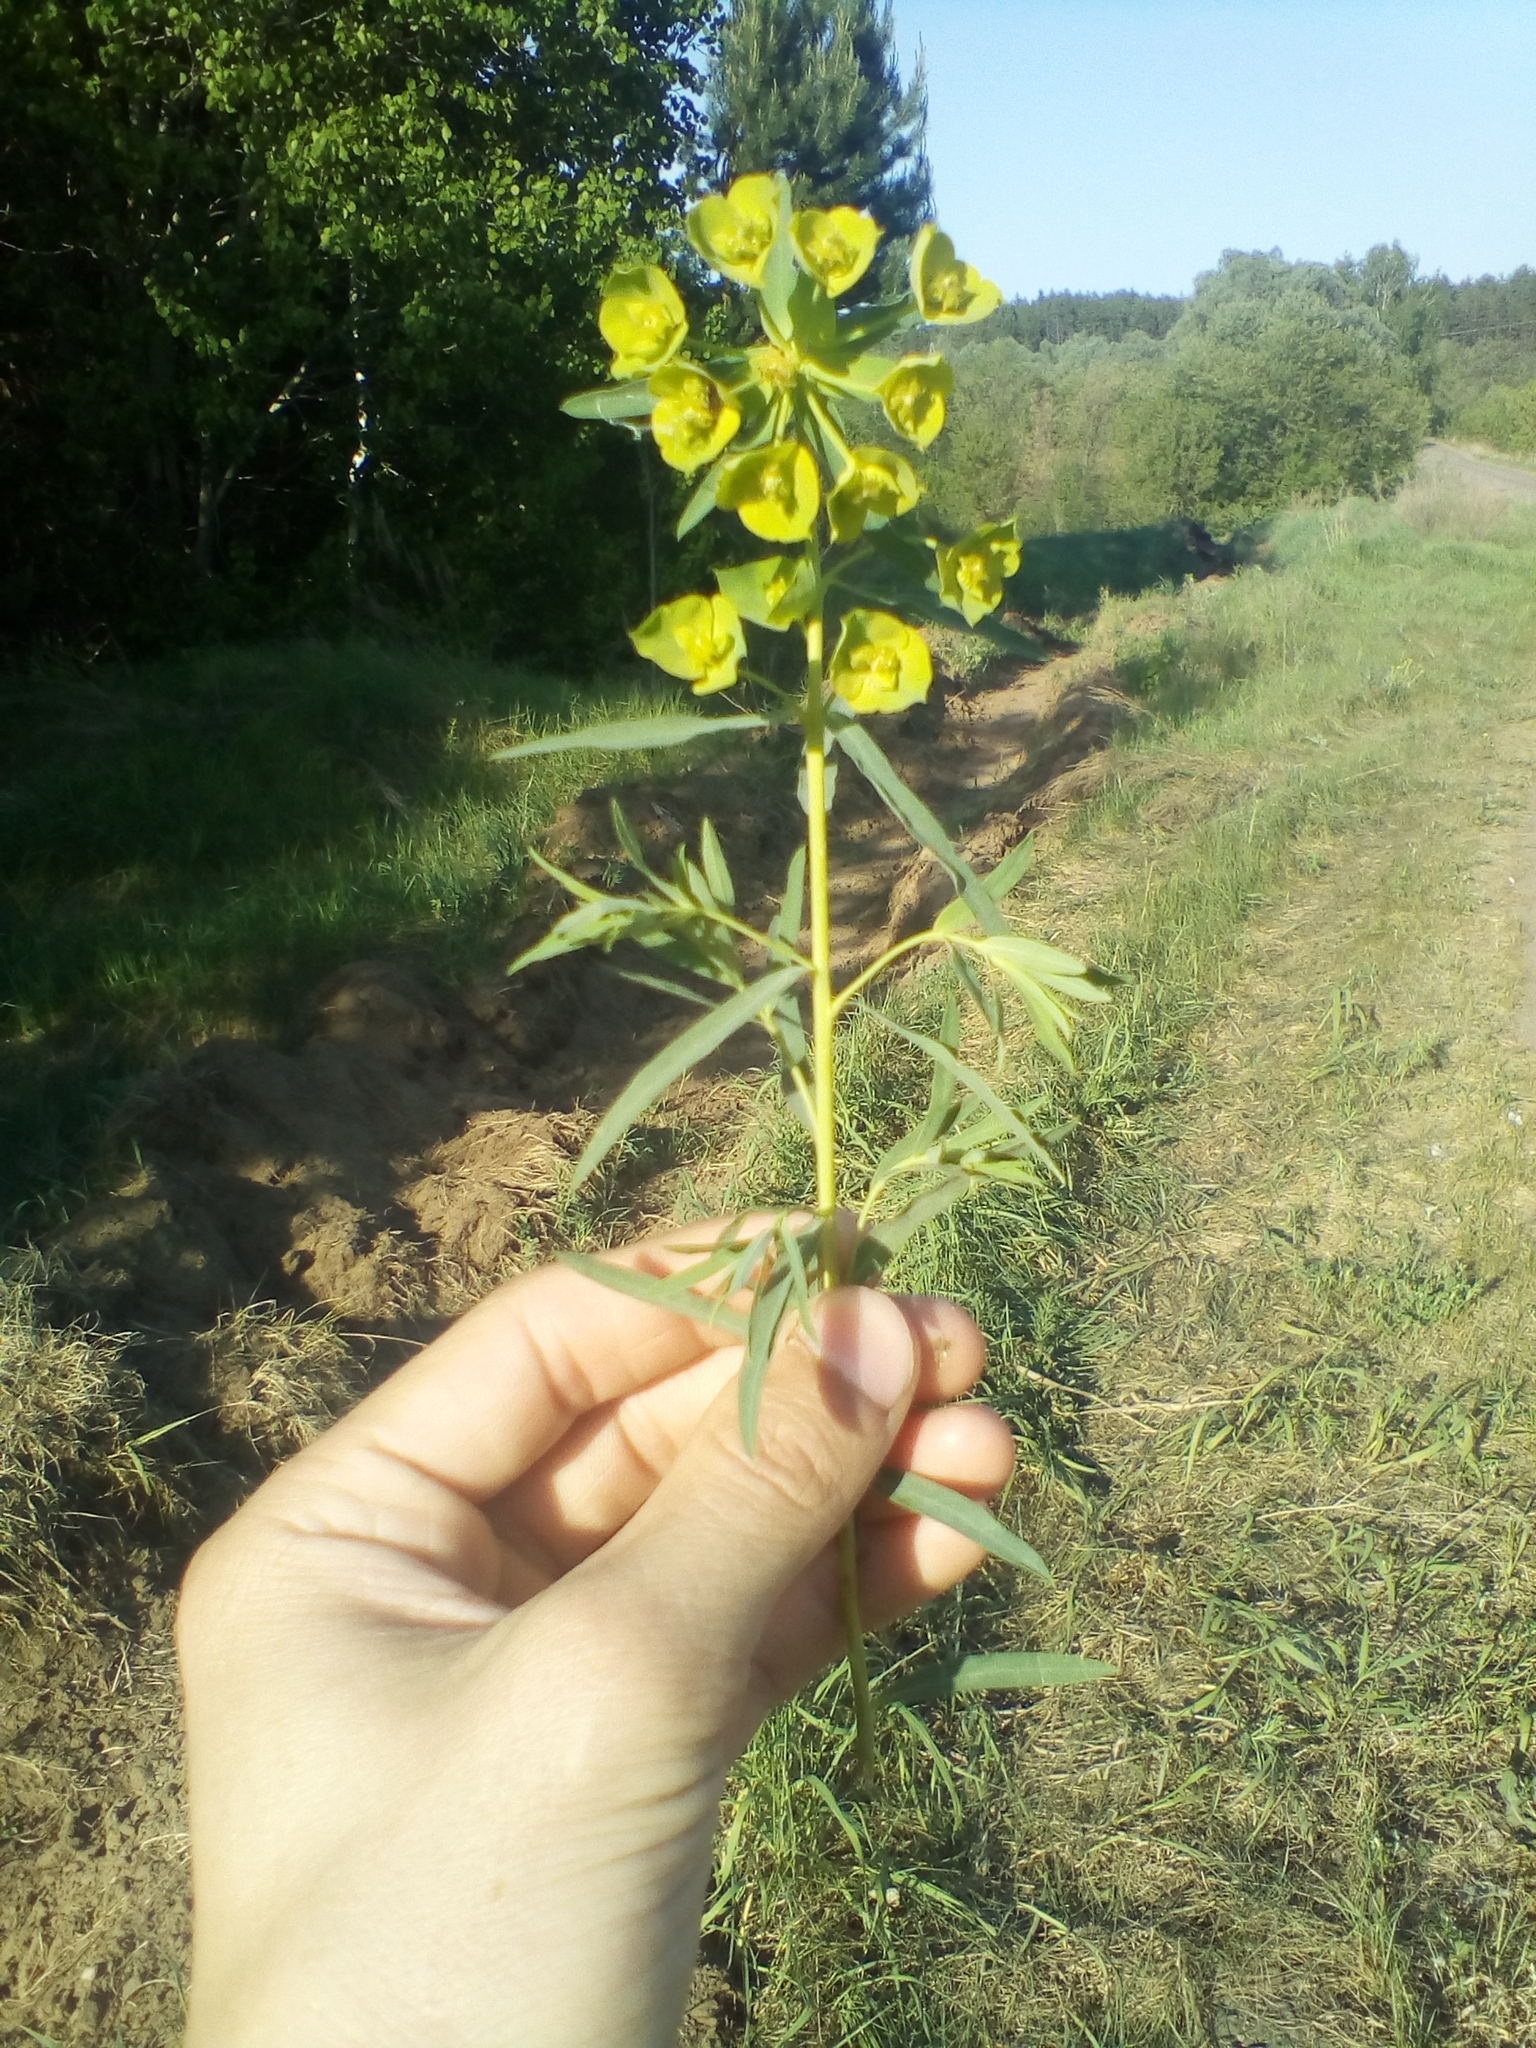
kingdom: Plantae
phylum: Tracheophyta
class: Magnoliopsida
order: Malpighiales
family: Euphorbiaceae
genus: Euphorbia
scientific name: Euphorbia virgata
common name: Leafy spurge
